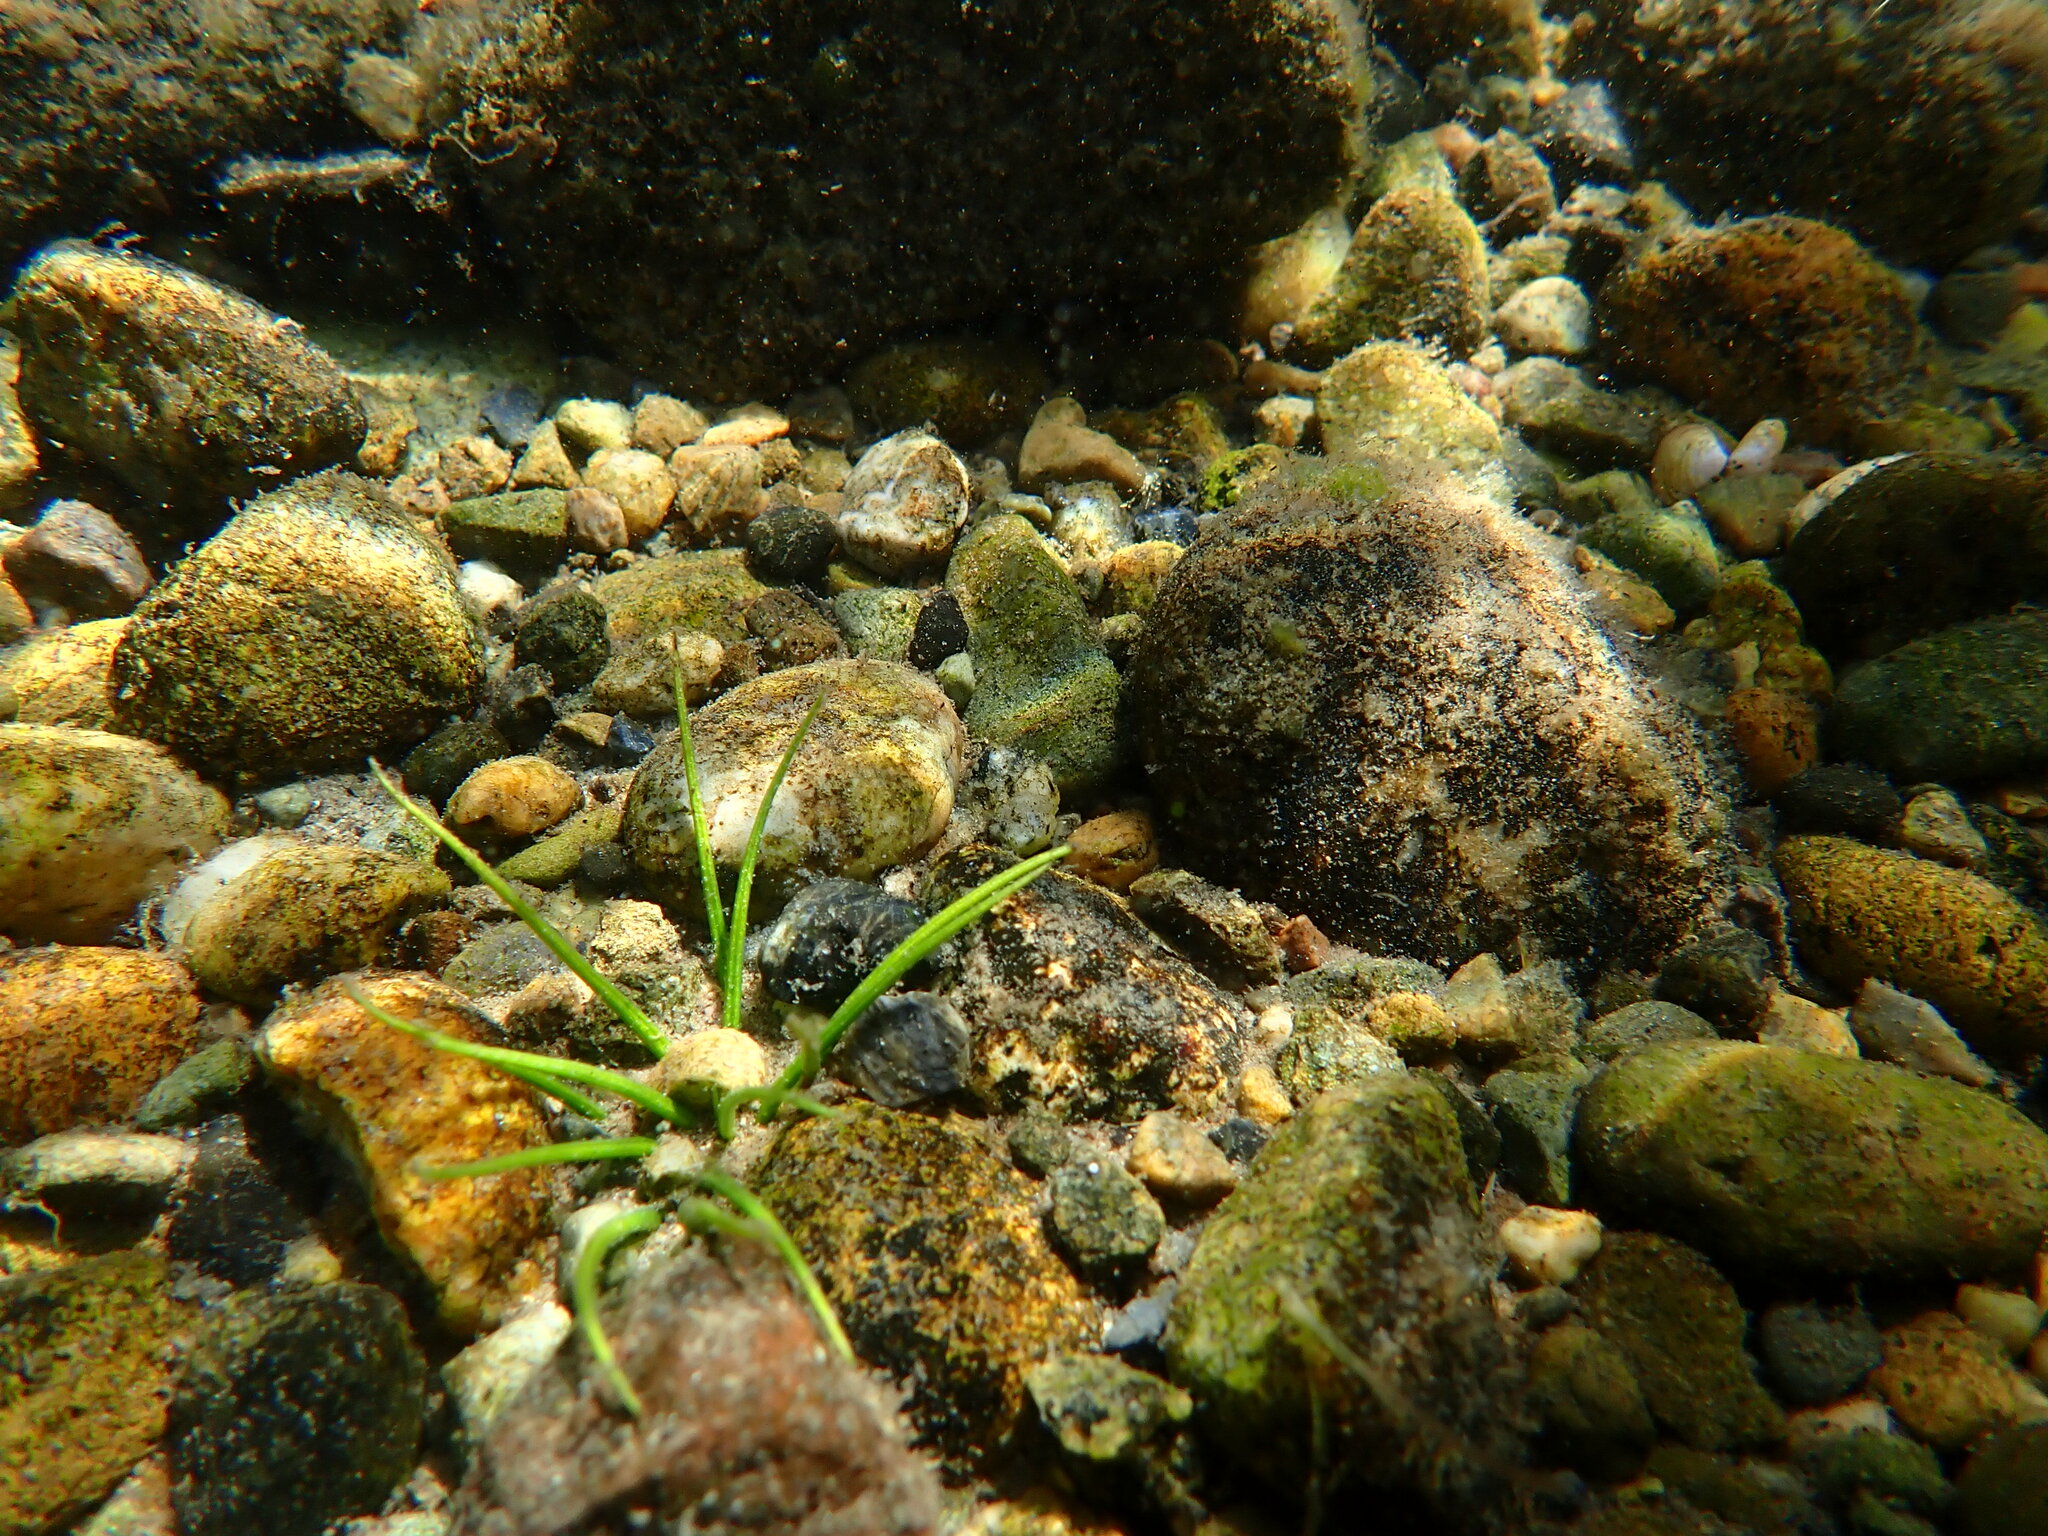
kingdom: Plantae
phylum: Tracheophyta
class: Lycopodiopsida
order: Isoetales
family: Isoetaceae
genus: Isoetes
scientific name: Isoetes echinospora
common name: Spring quillwort
